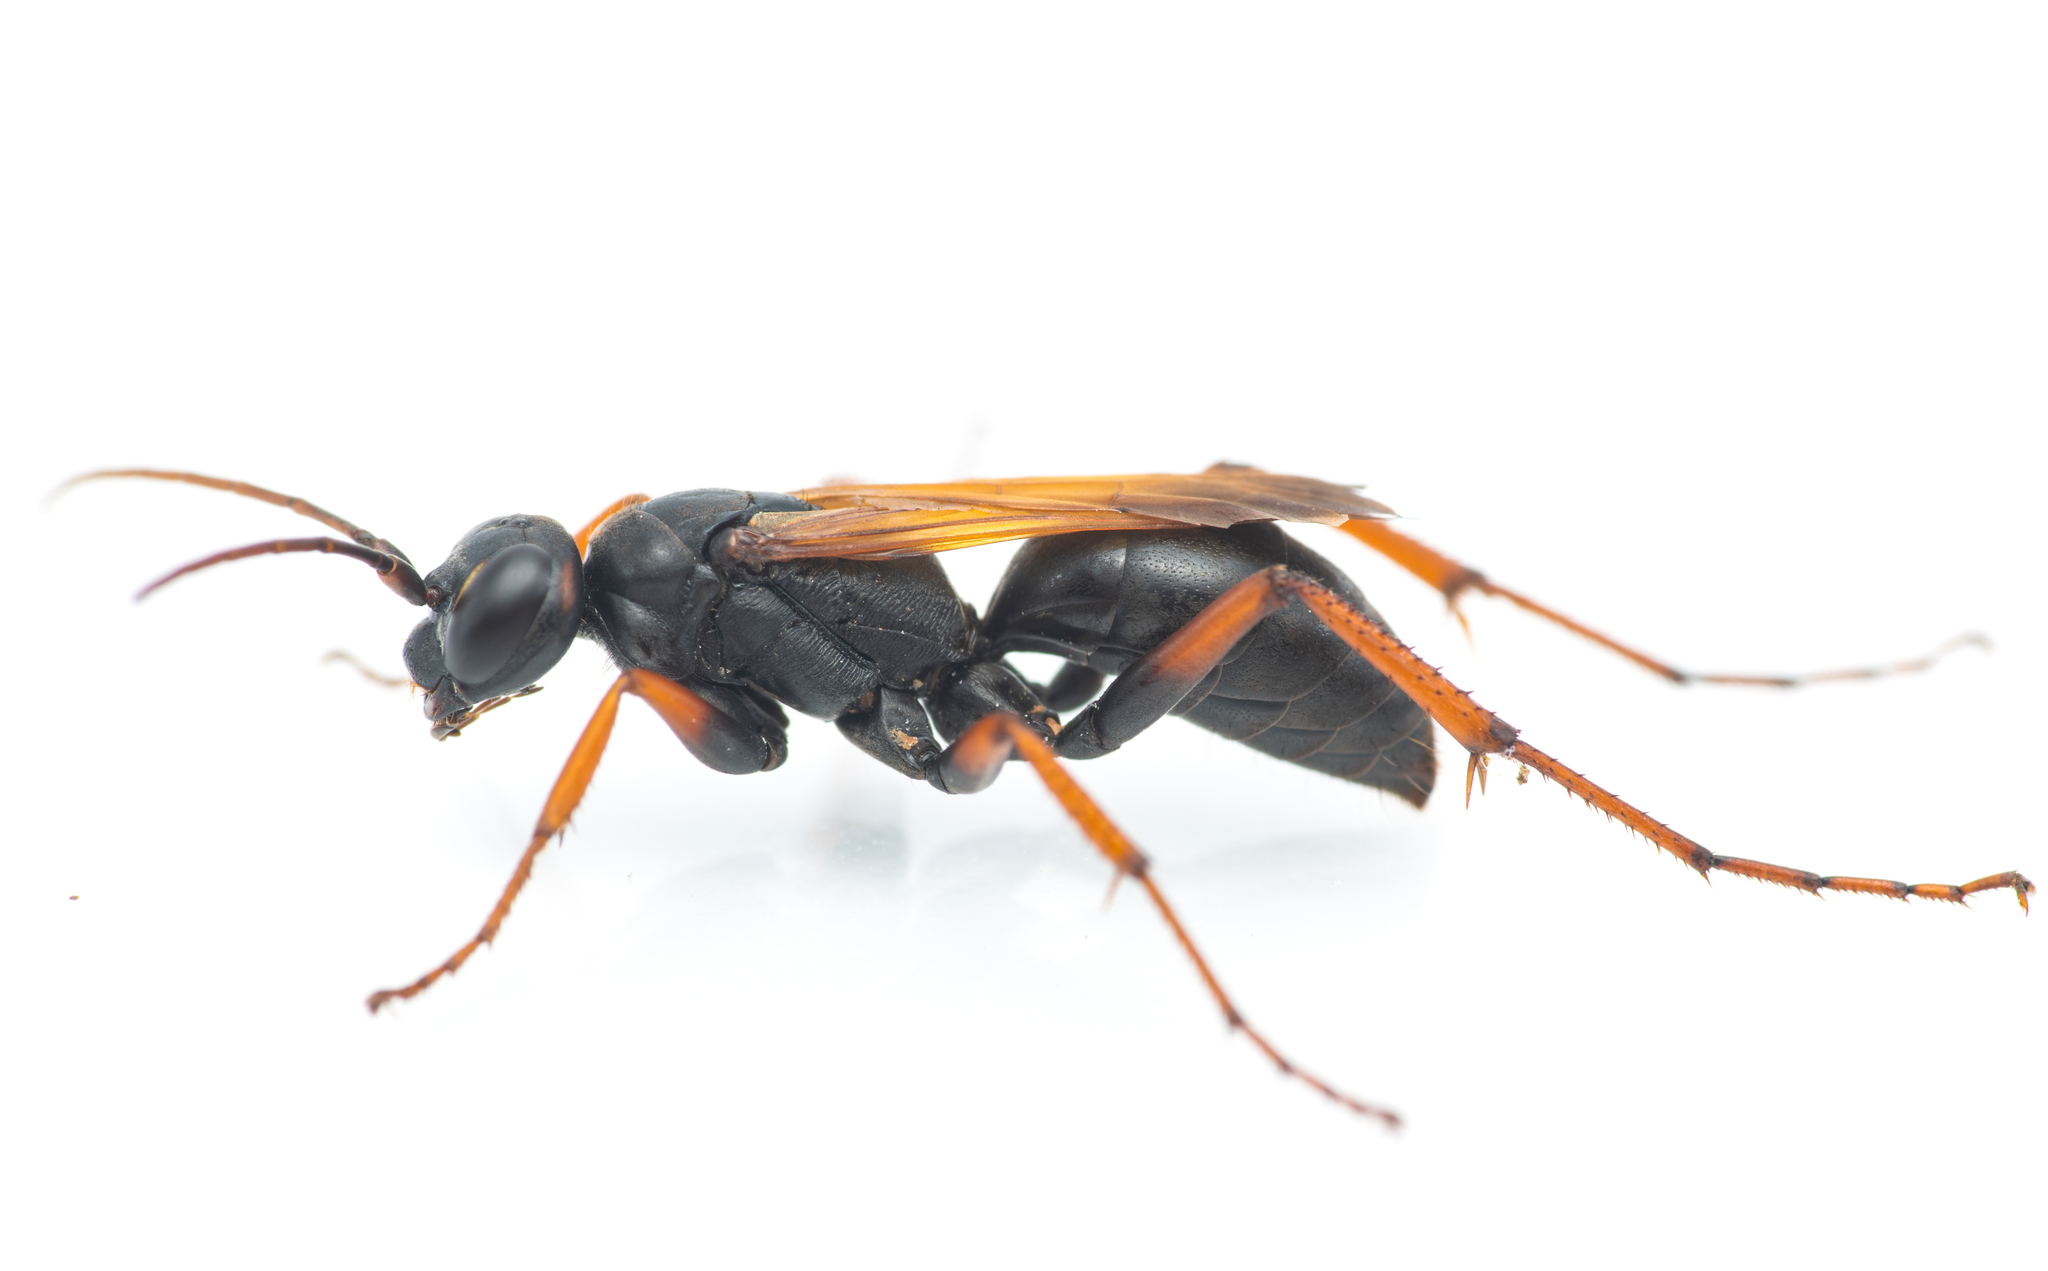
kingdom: Animalia
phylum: Arthropoda
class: Insecta
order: Hymenoptera
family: Pompilidae
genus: Cryptocheilus
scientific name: Cryptocheilus infumatus
